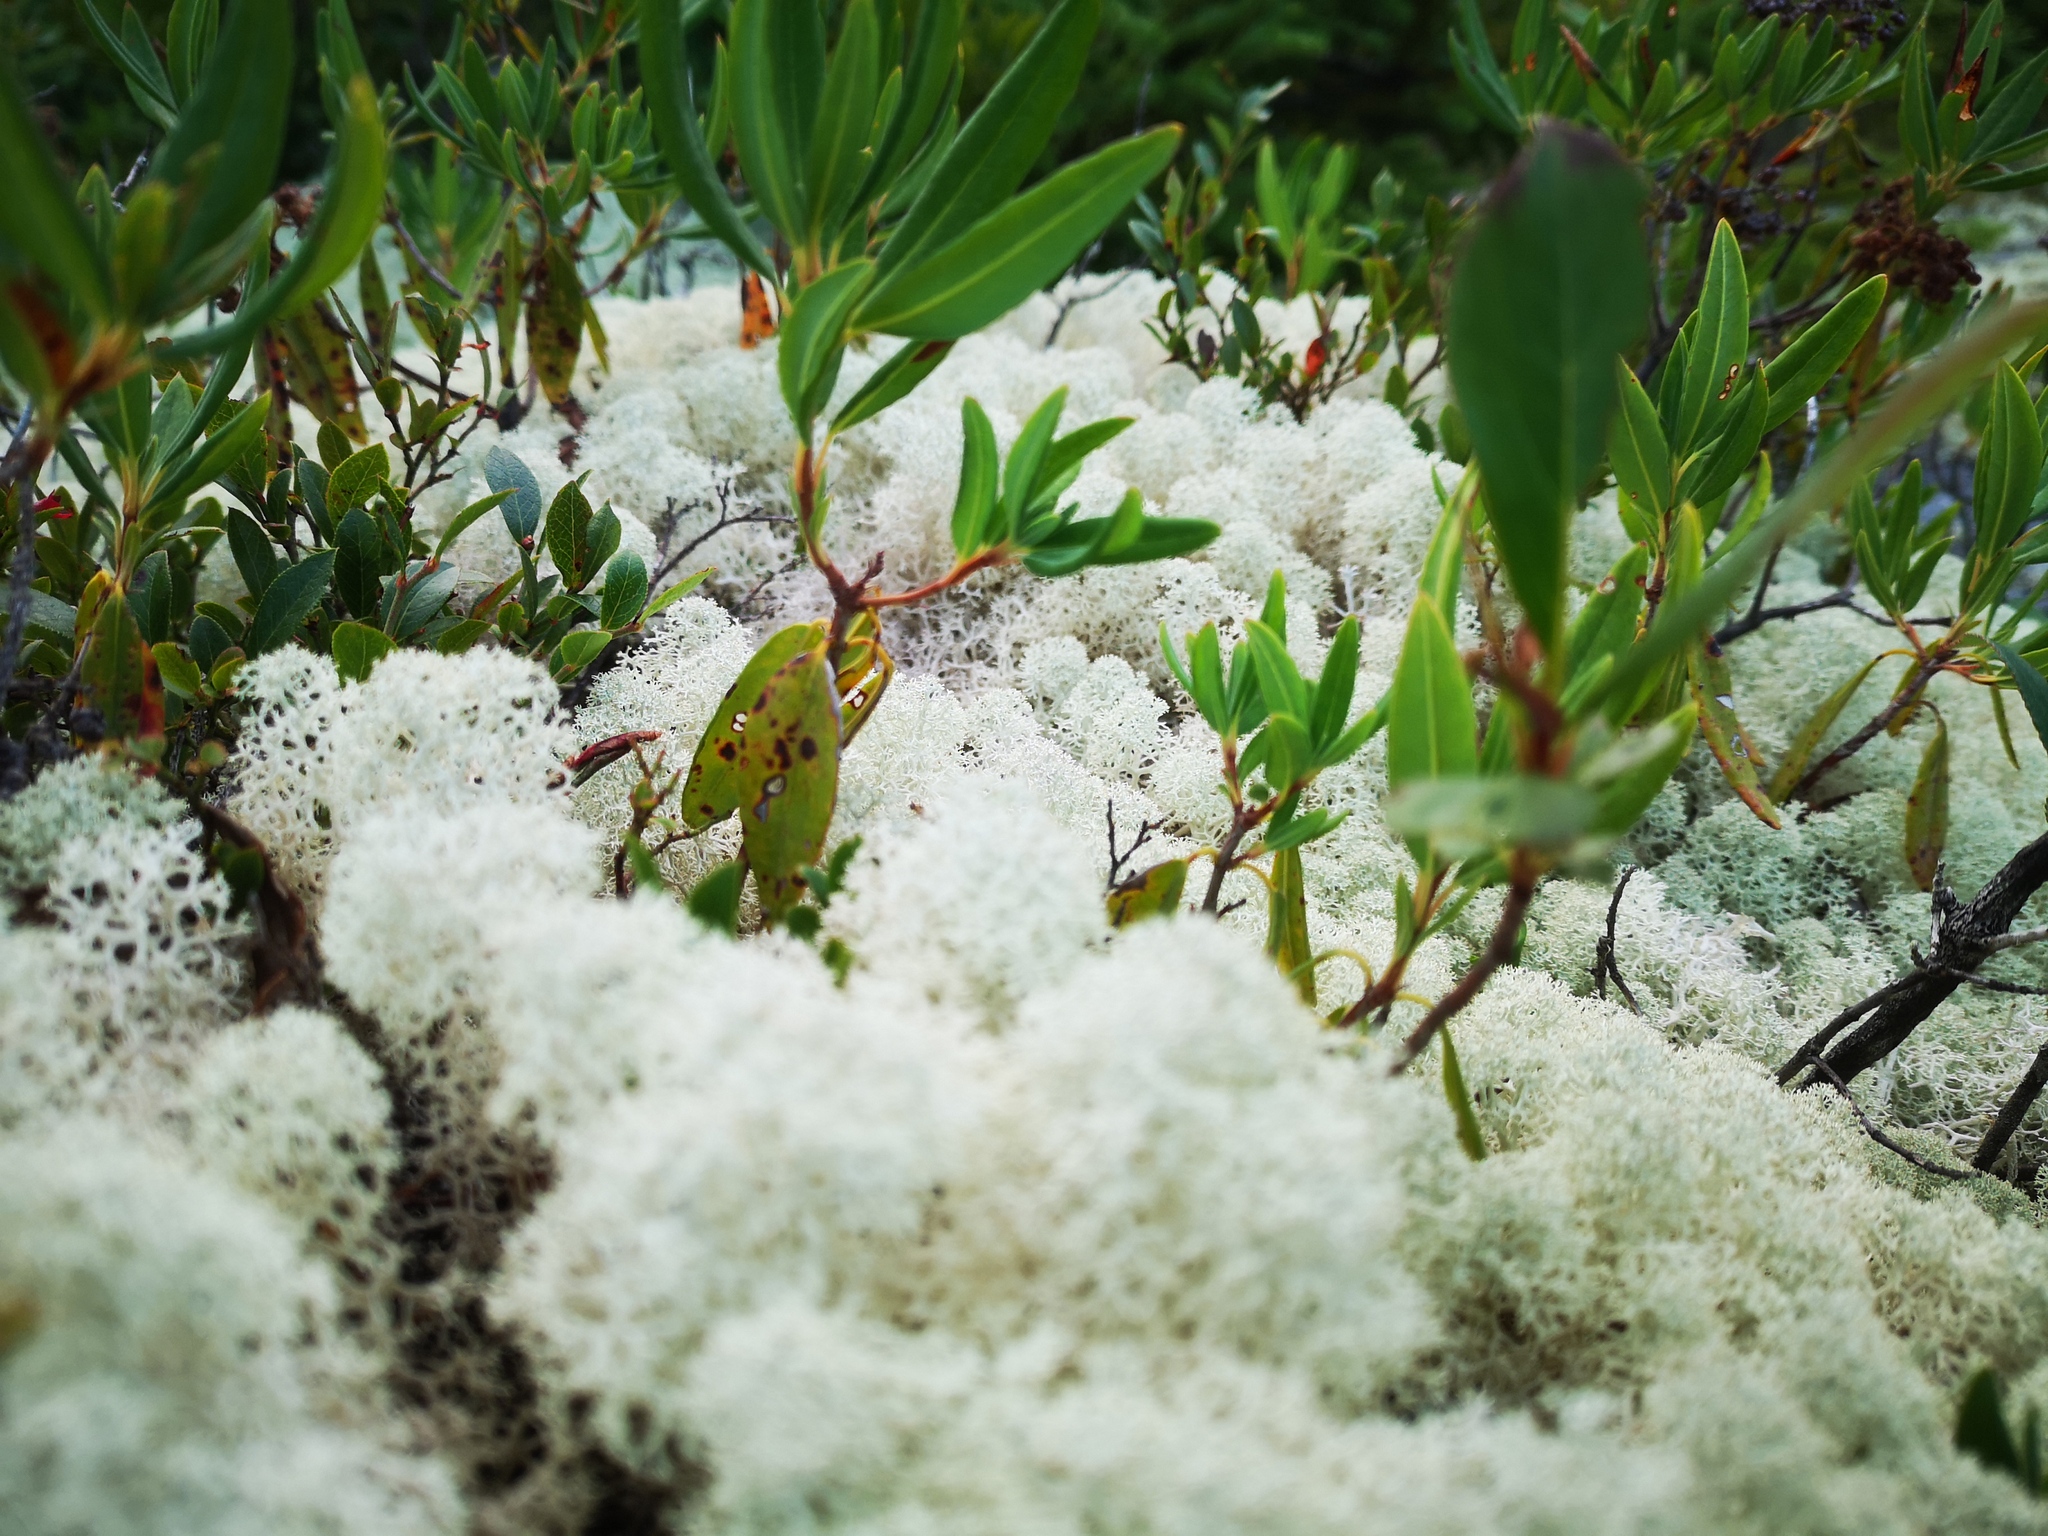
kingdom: Fungi
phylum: Ascomycota
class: Lecanoromycetes
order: Lecanorales
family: Cladoniaceae
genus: Cladonia
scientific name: Cladonia stellaris
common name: Star-tipped reindeer lichen
